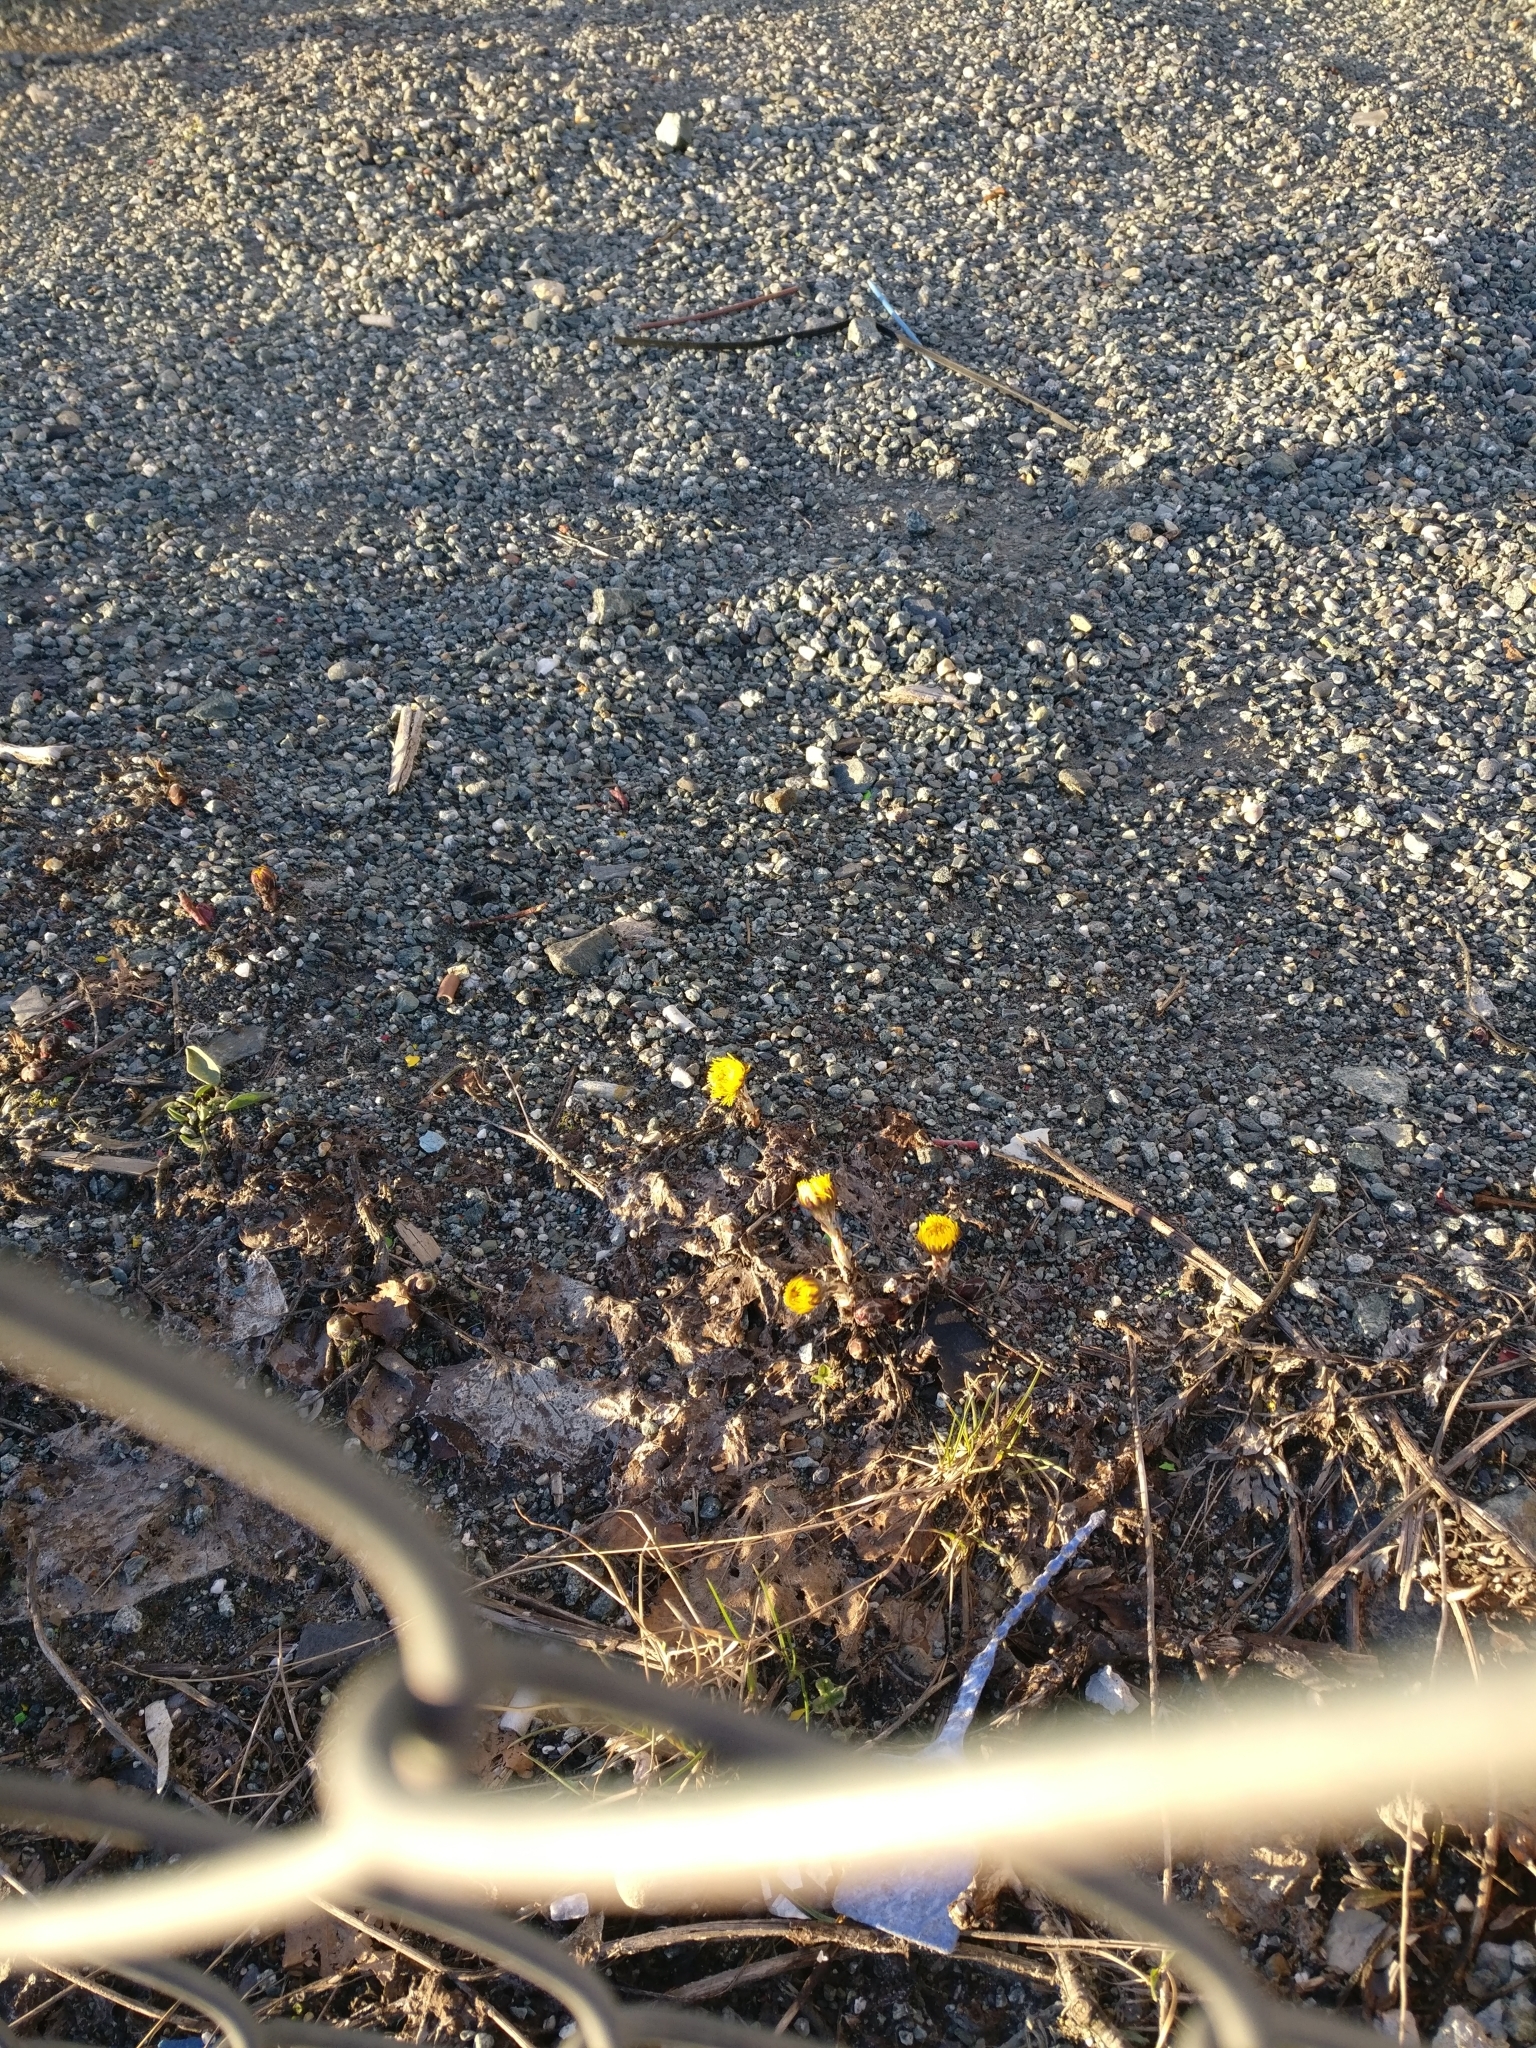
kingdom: Plantae
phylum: Tracheophyta
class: Magnoliopsida
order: Asterales
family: Asteraceae
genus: Tussilago
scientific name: Tussilago farfara
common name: Coltsfoot
